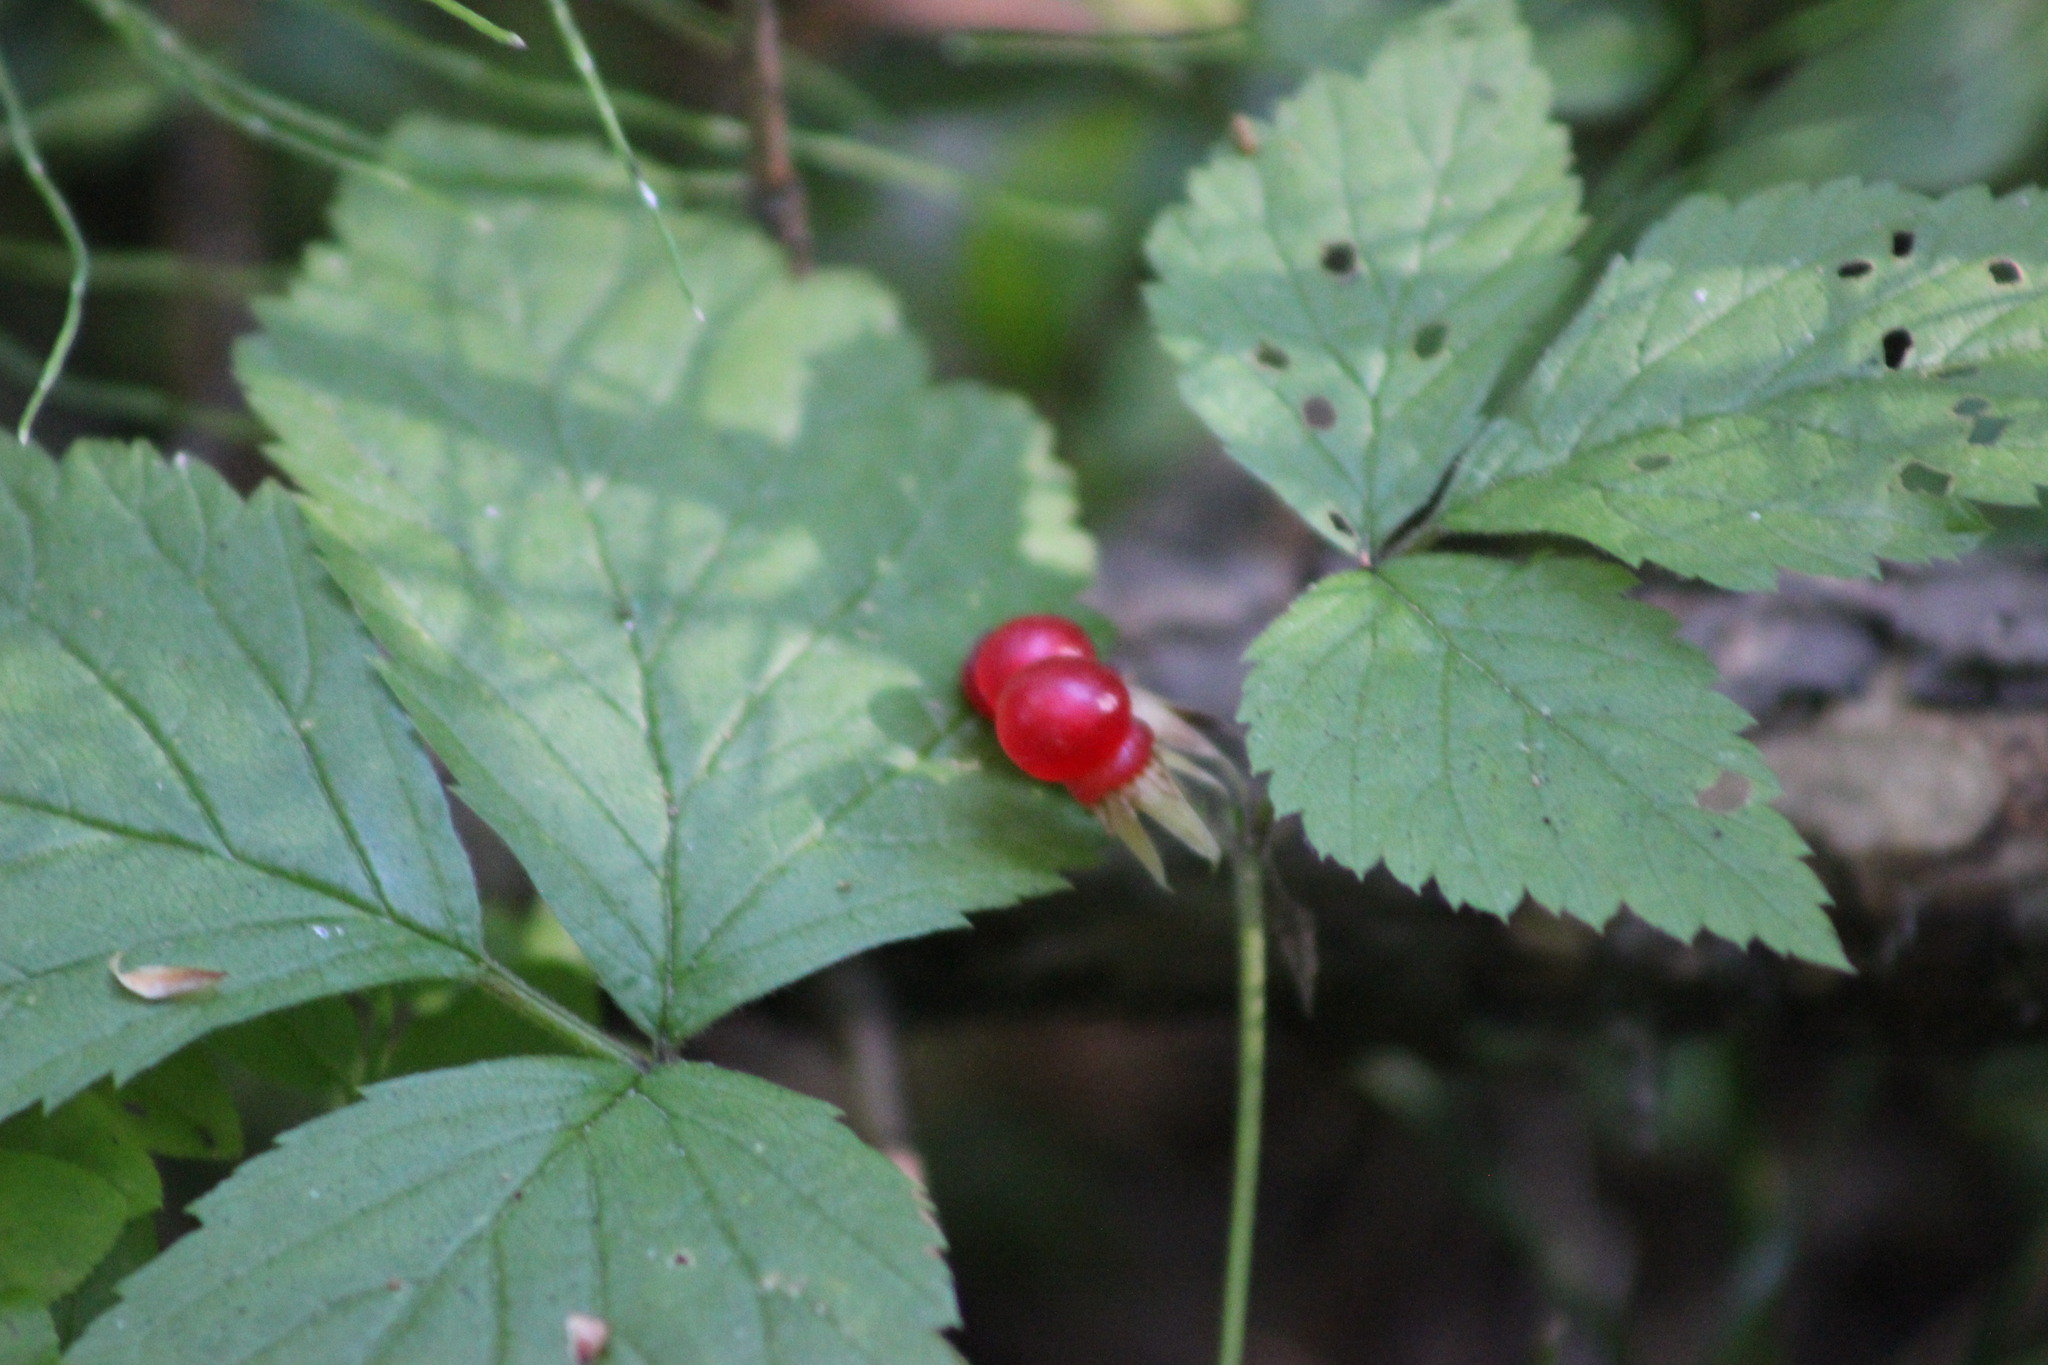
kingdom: Plantae
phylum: Tracheophyta
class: Magnoliopsida
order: Rosales
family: Rosaceae
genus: Rubus
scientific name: Rubus saxatilis
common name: Stone bramble
